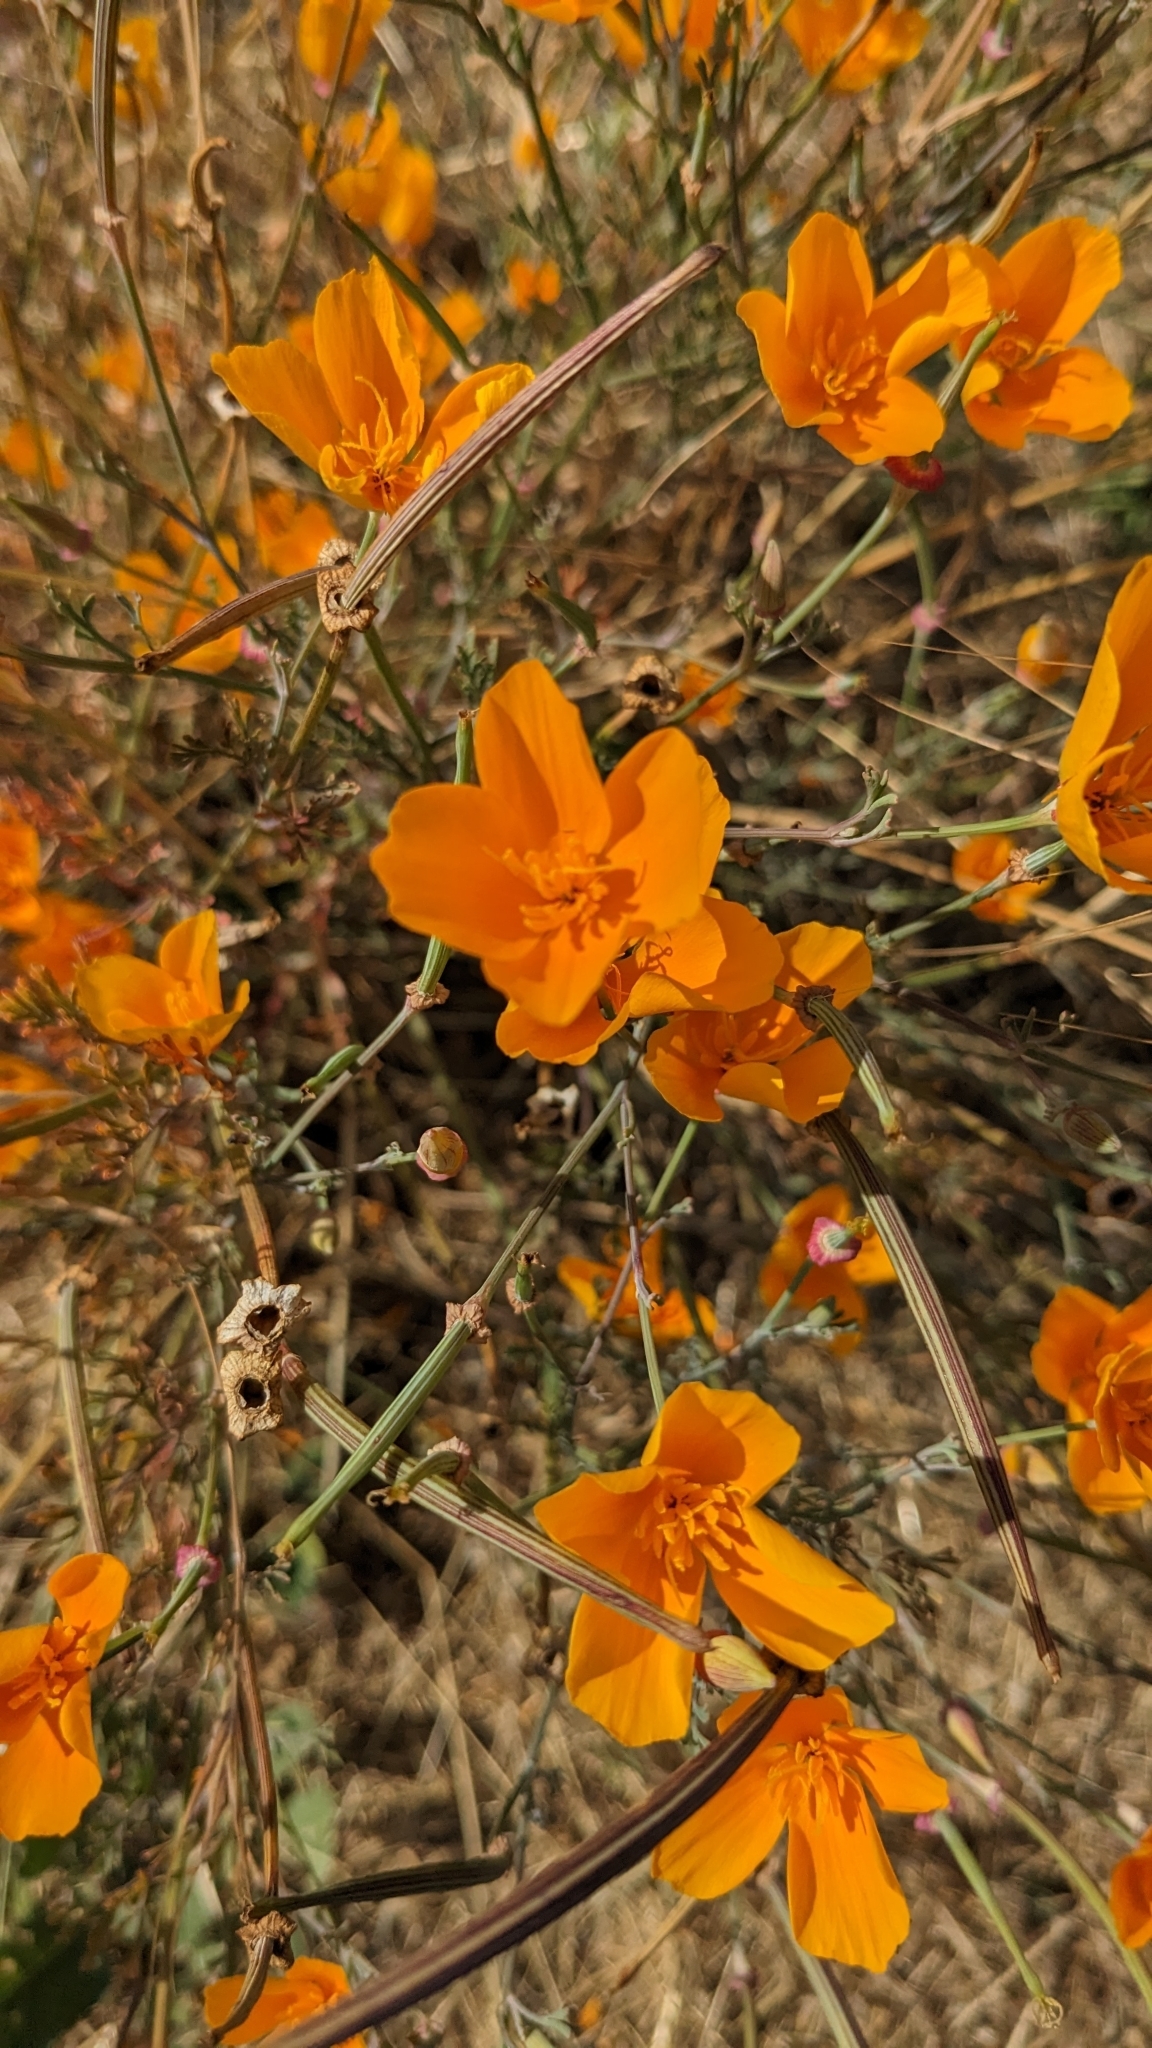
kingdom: Plantae
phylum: Tracheophyta
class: Magnoliopsida
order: Ranunculales
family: Papaveraceae
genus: Eschscholzia
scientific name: Eschscholzia californica
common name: California poppy
